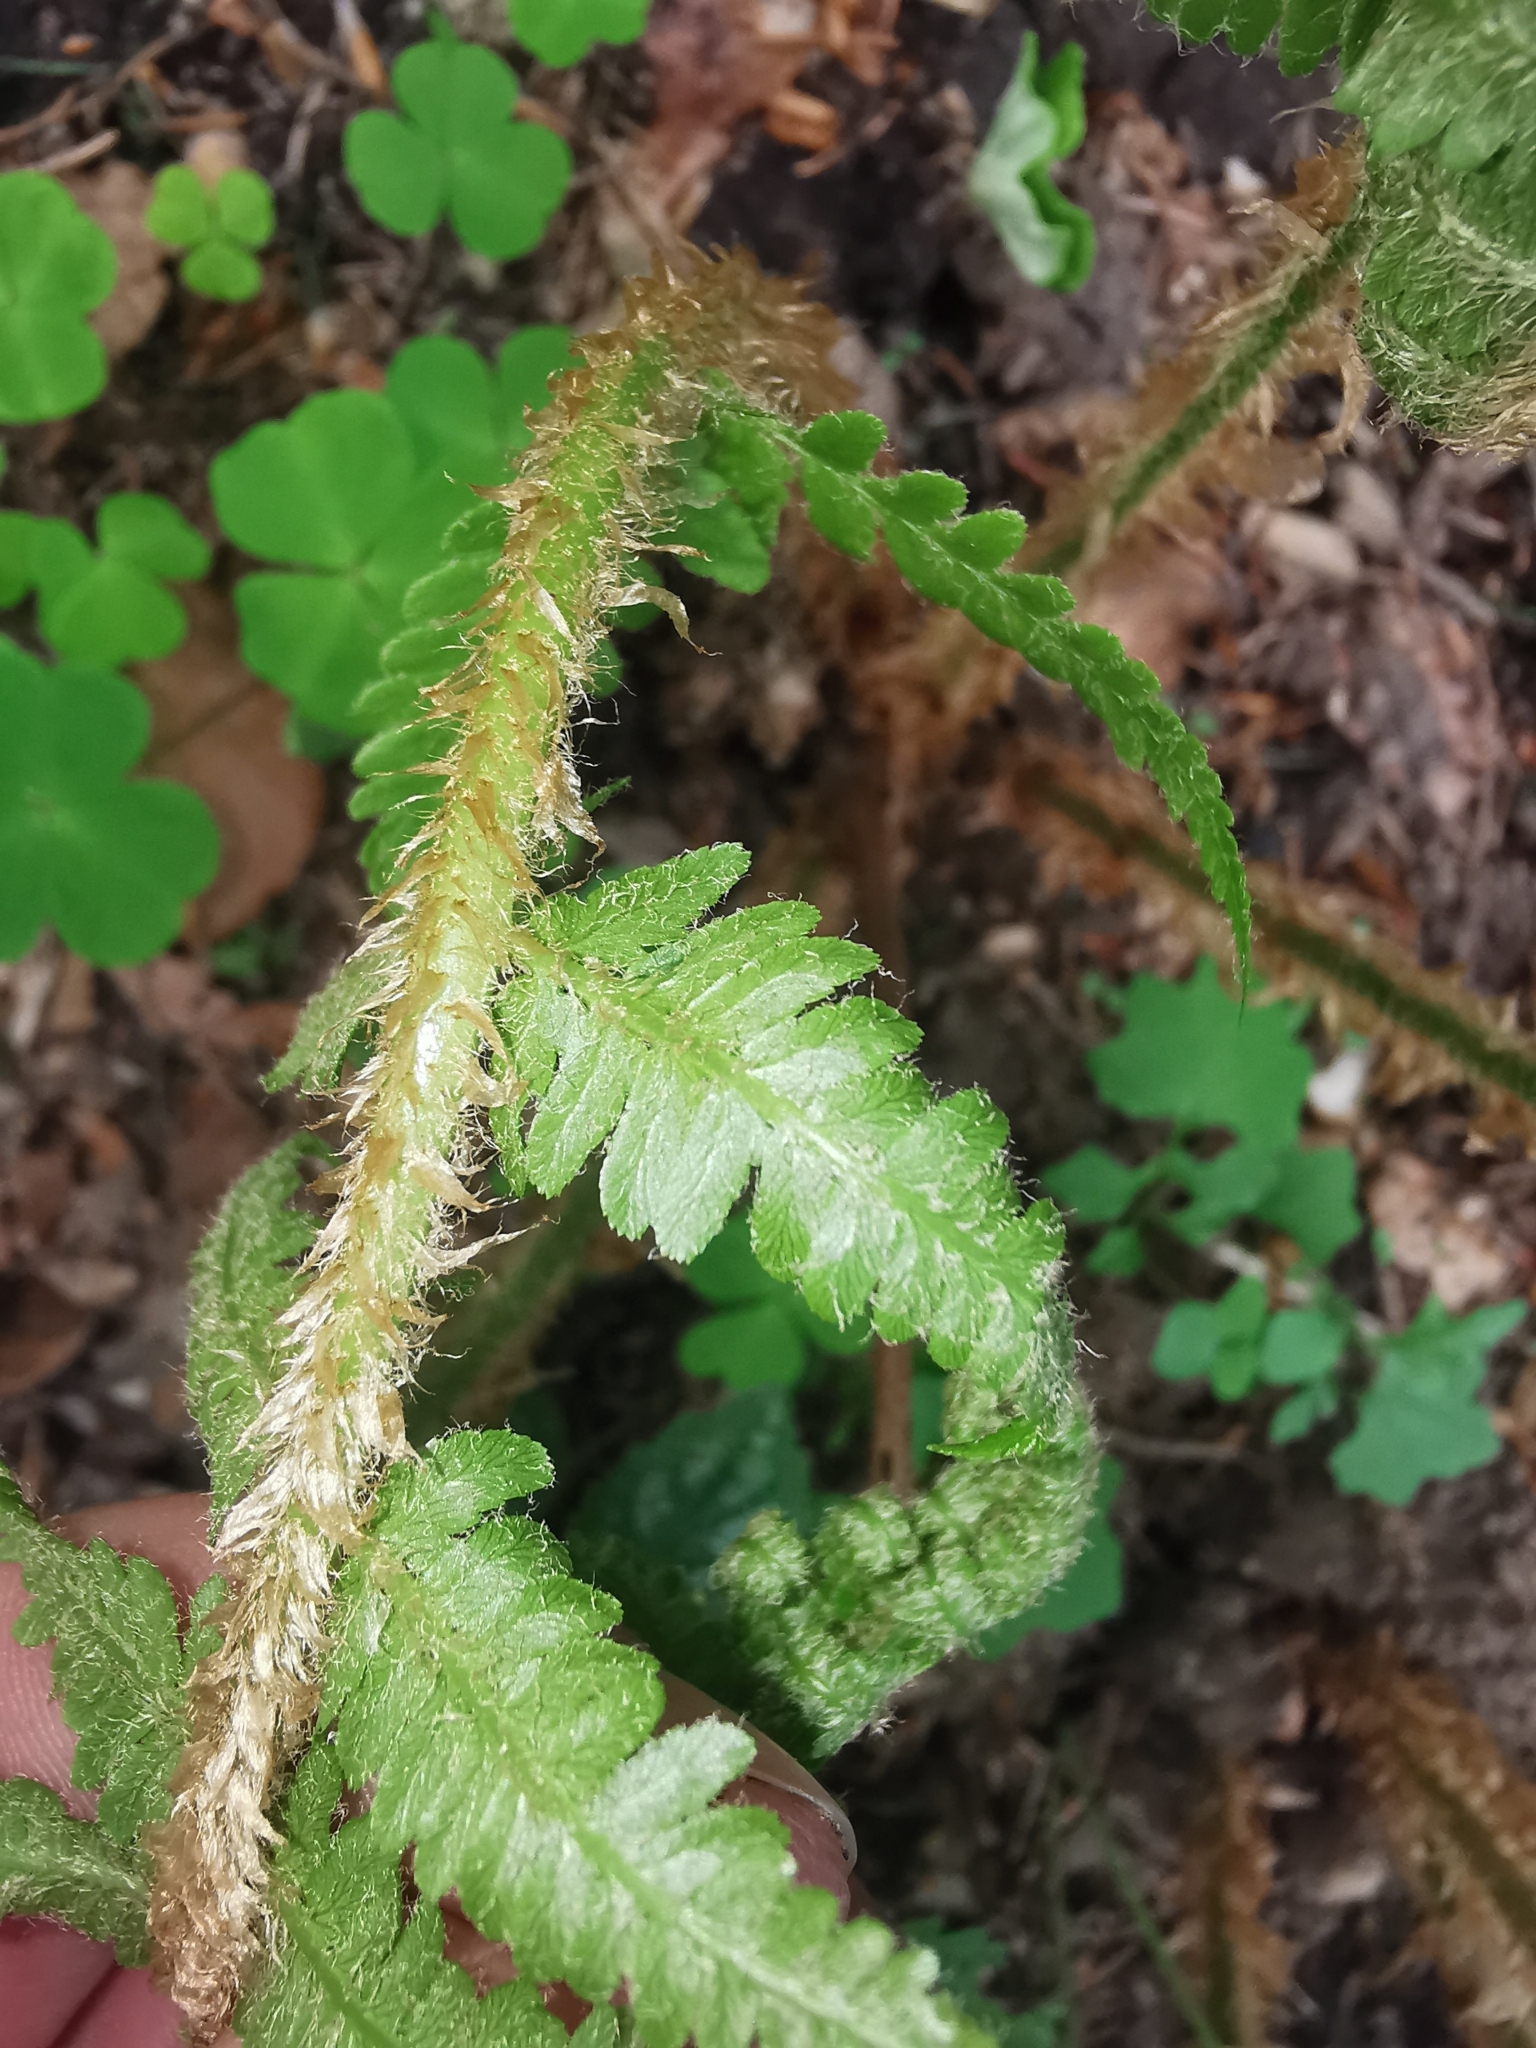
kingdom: Plantae
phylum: Tracheophyta
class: Polypodiopsida
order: Polypodiales
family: Dryopteridaceae
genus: Dryopteris
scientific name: Dryopteris filix-mas
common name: Male fern
